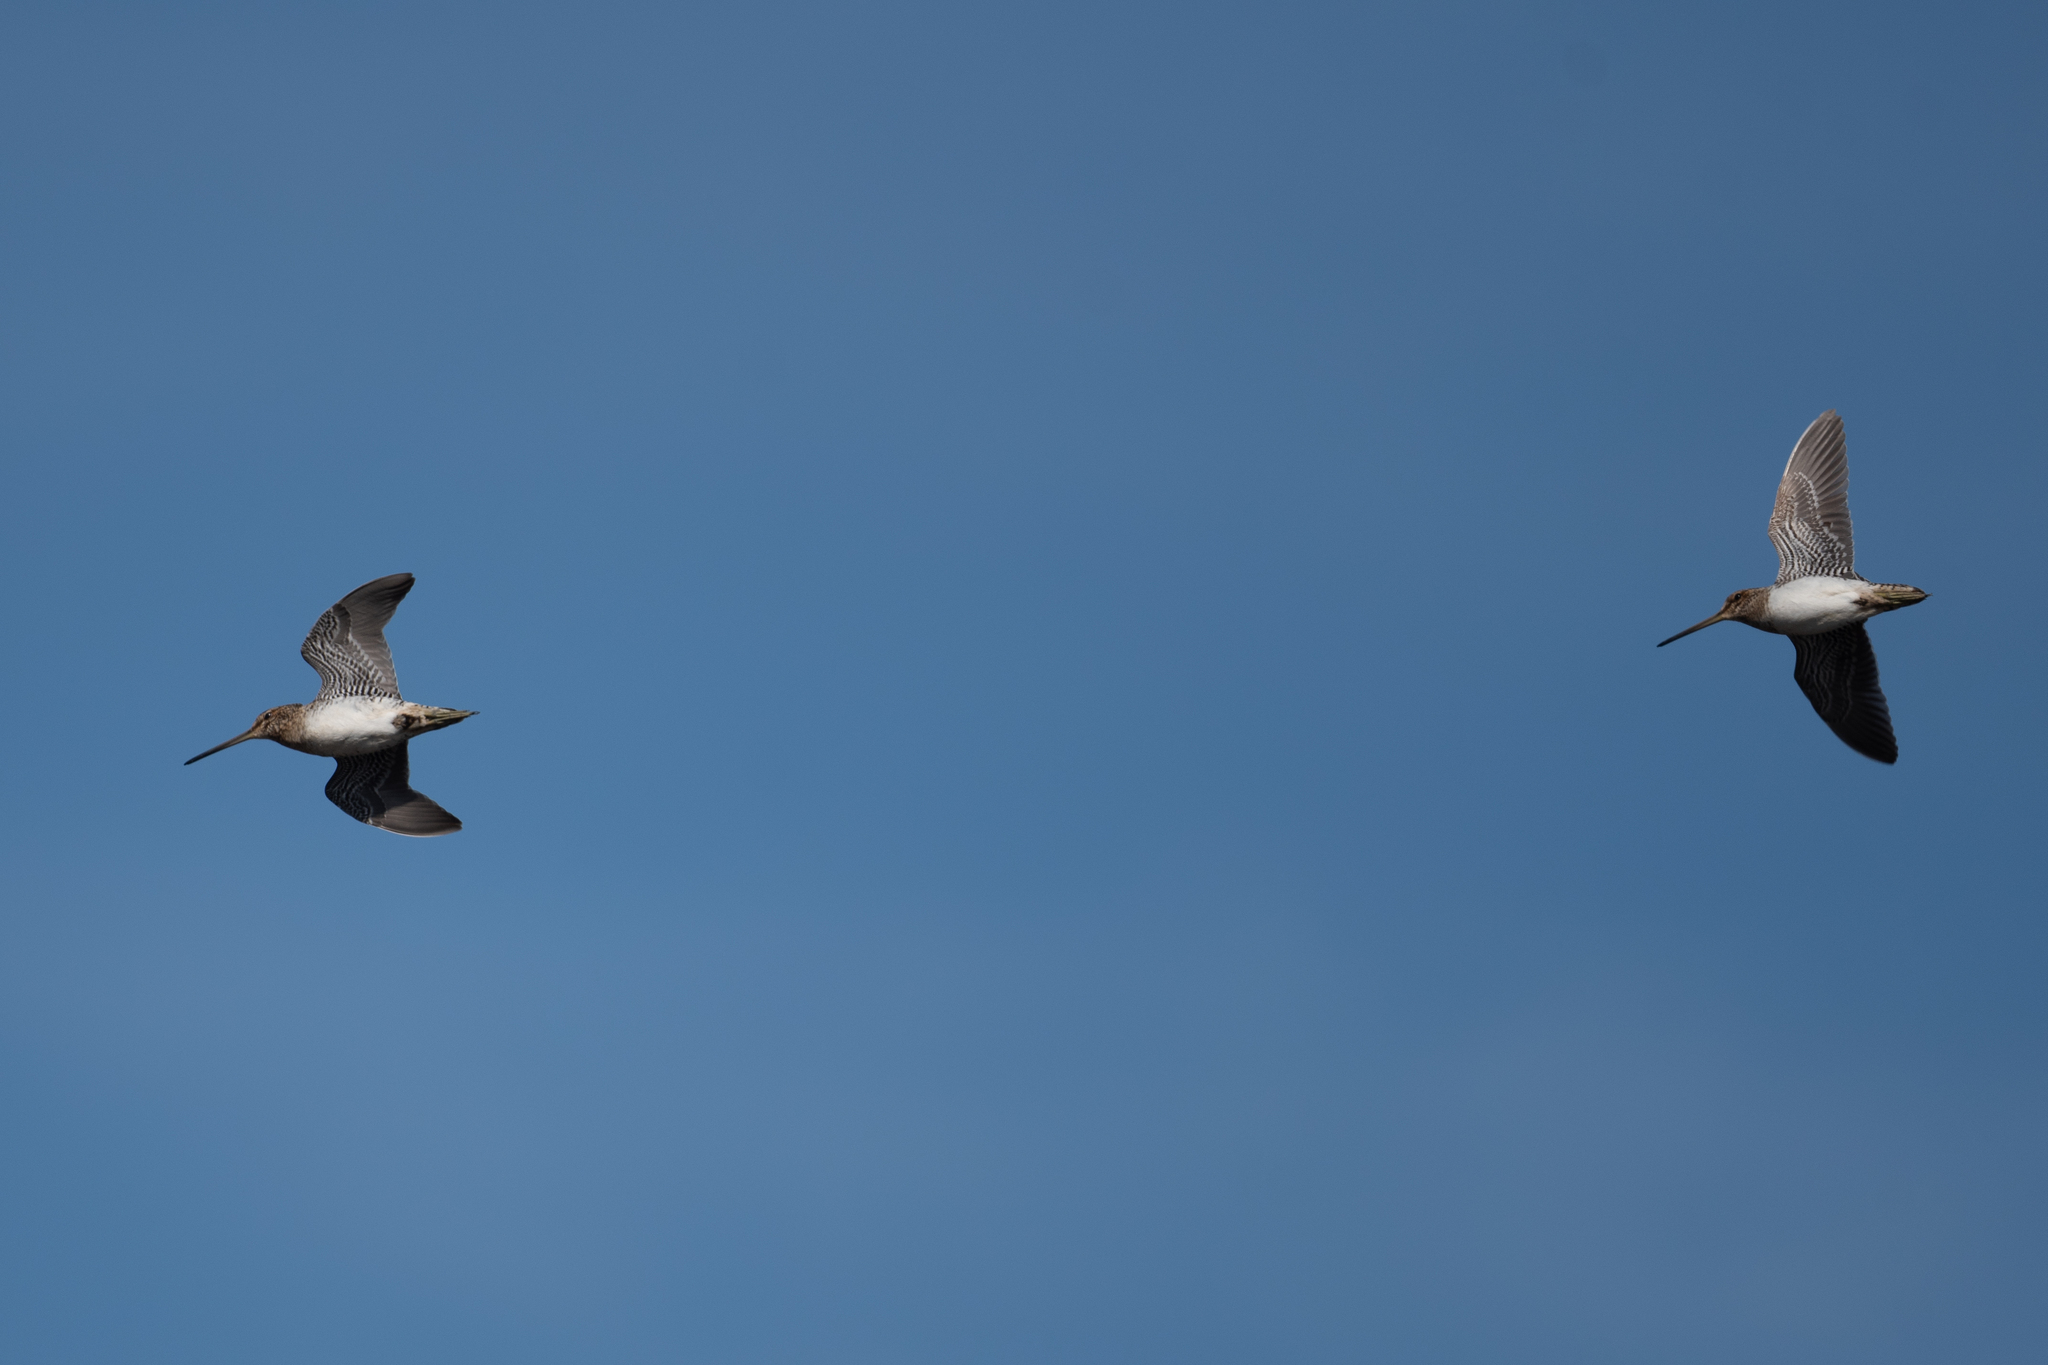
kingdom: Animalia
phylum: Chordata
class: Aves
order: Charadriiformes
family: Scolopacidae
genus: Gallinago
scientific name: Gallinago delicata
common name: Wilson's snipe
